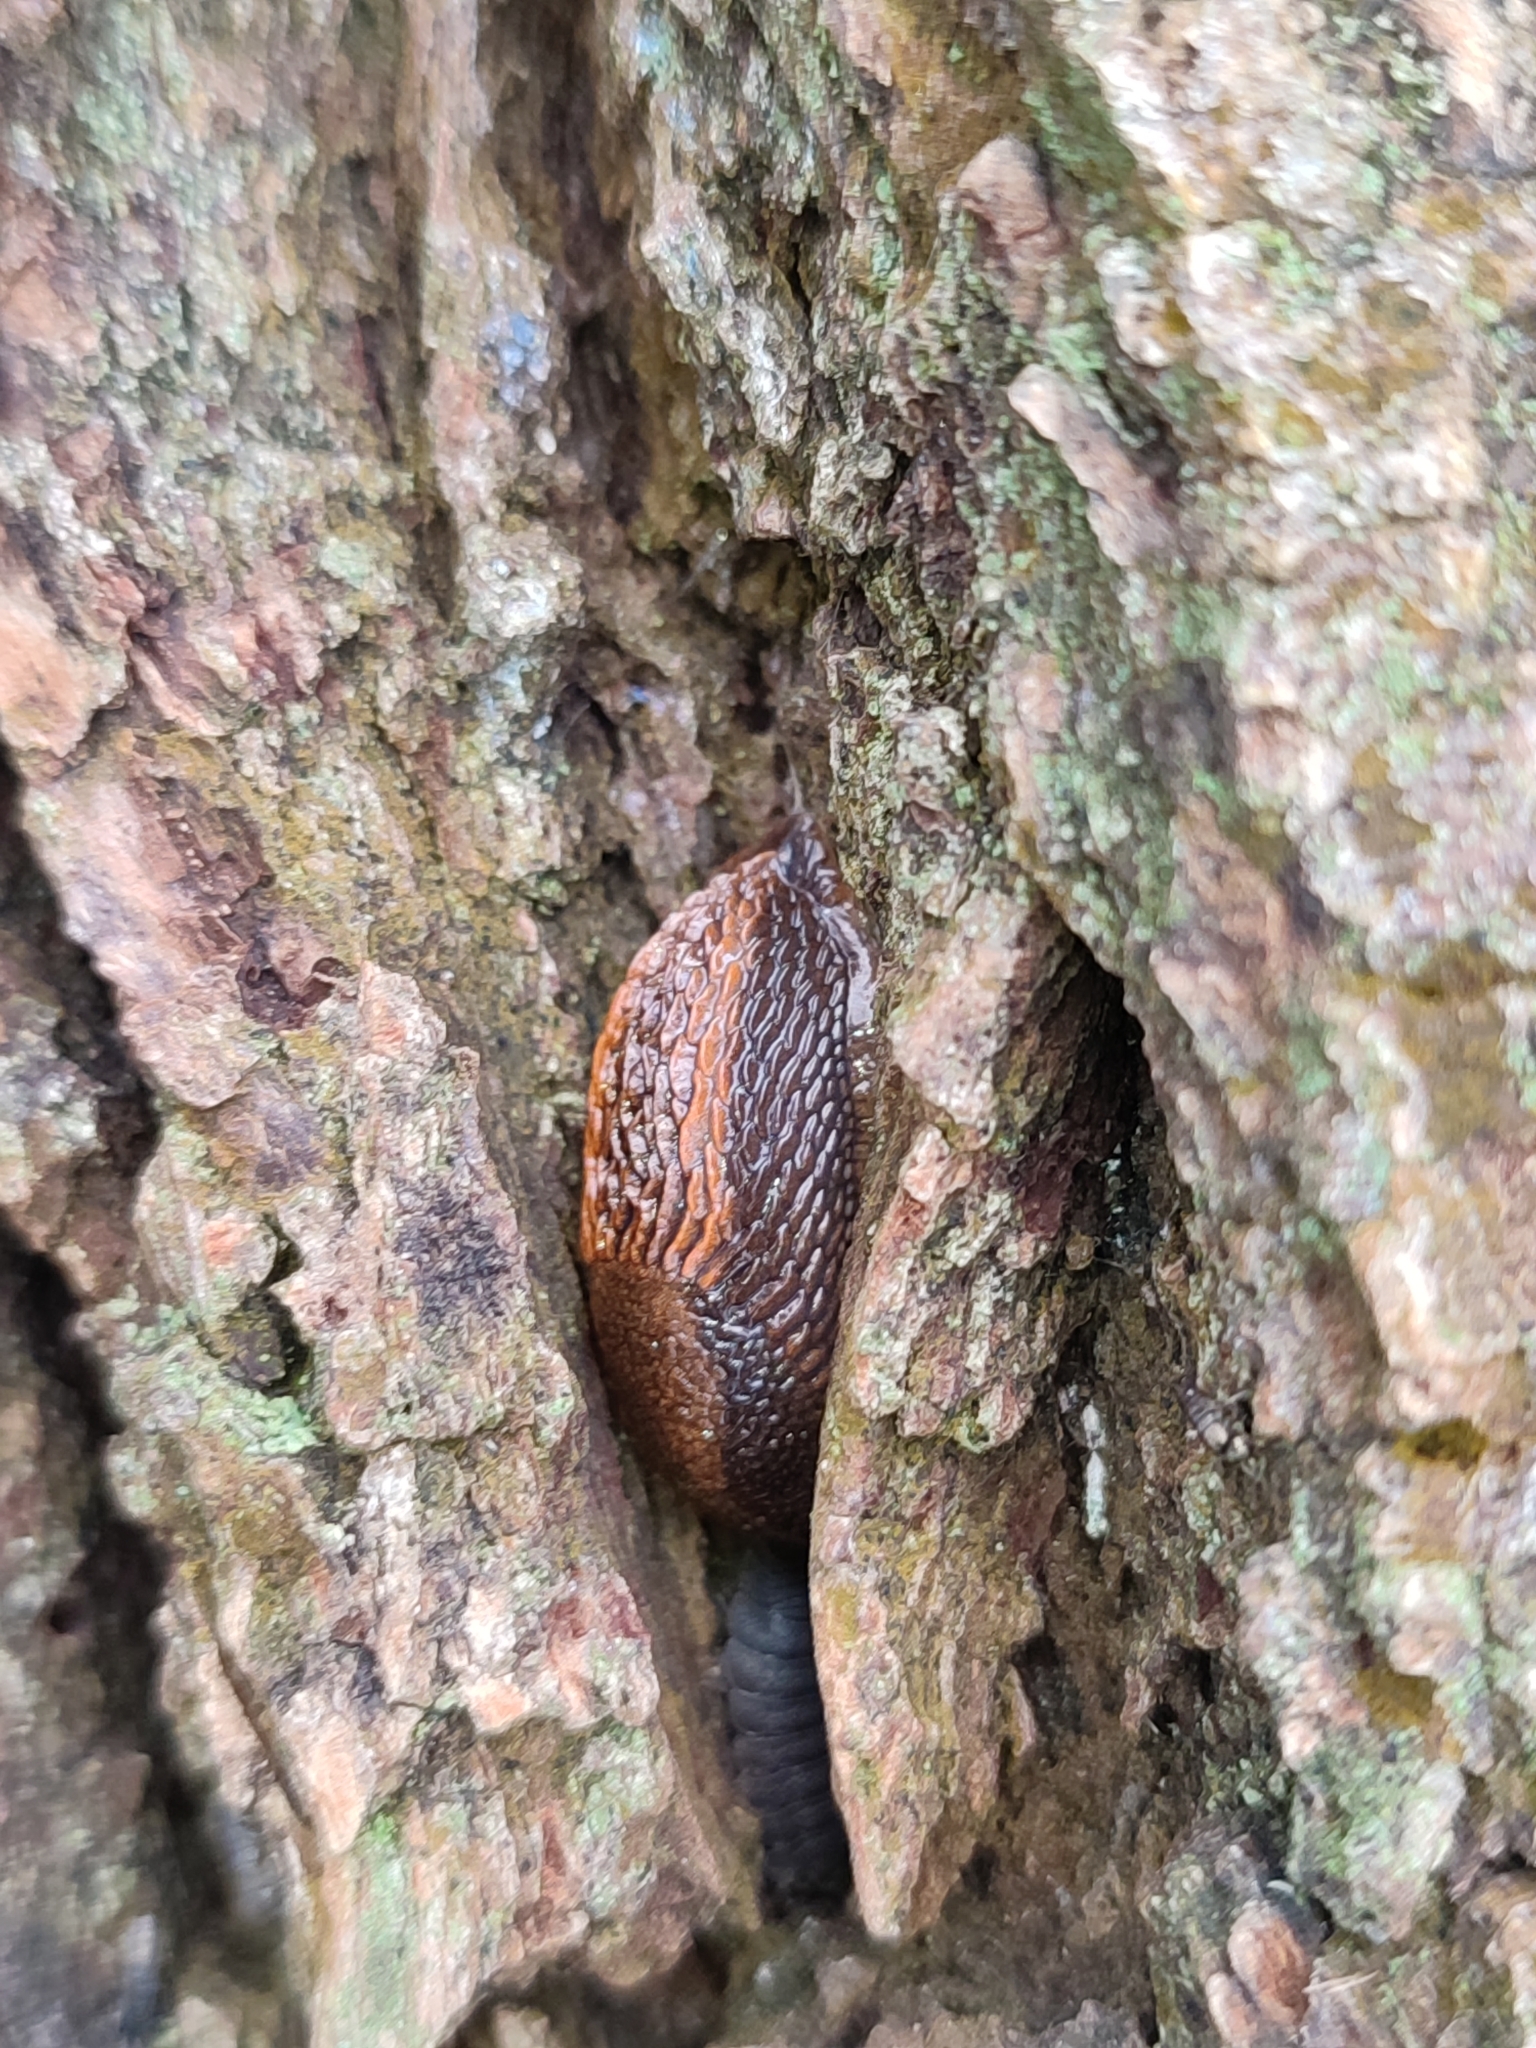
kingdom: Animalia
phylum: Mollusca
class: Gastropoda
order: Stylommatophora
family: Arionidae
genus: Arion
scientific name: Arion vulgaris
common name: Lusitanian slug
